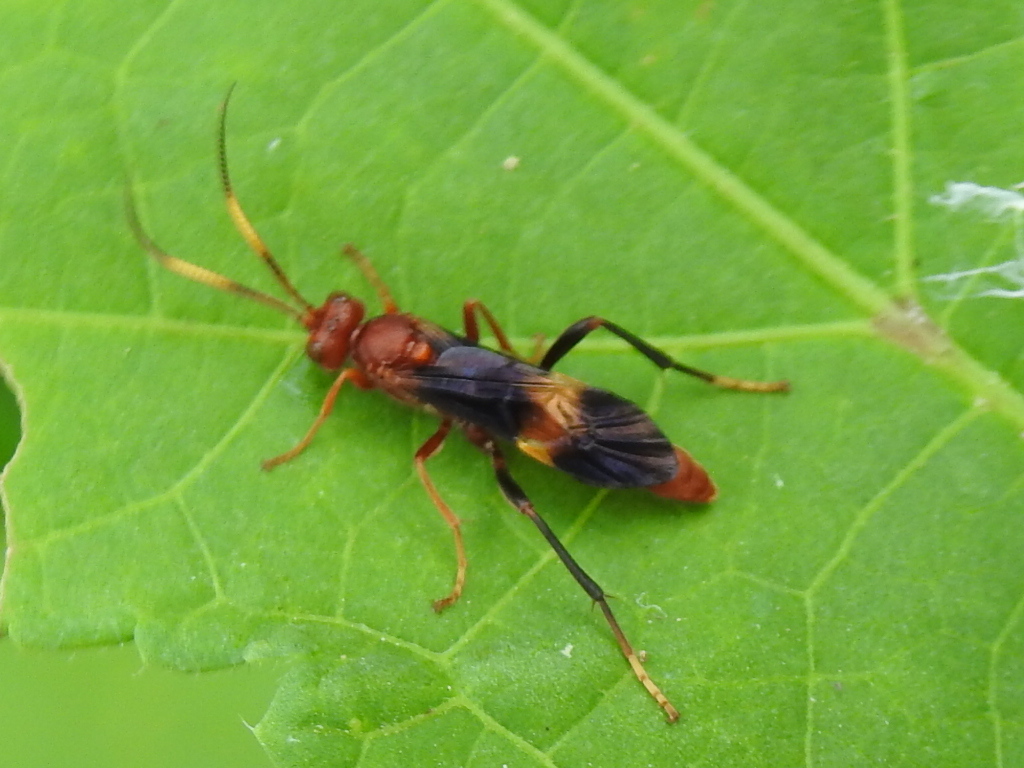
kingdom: Animalia
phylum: Arthropoda
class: Insecta
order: Hymenoptera
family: Ichneumonidae
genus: Trogomorpha
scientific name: Trogomorpha arrogans
